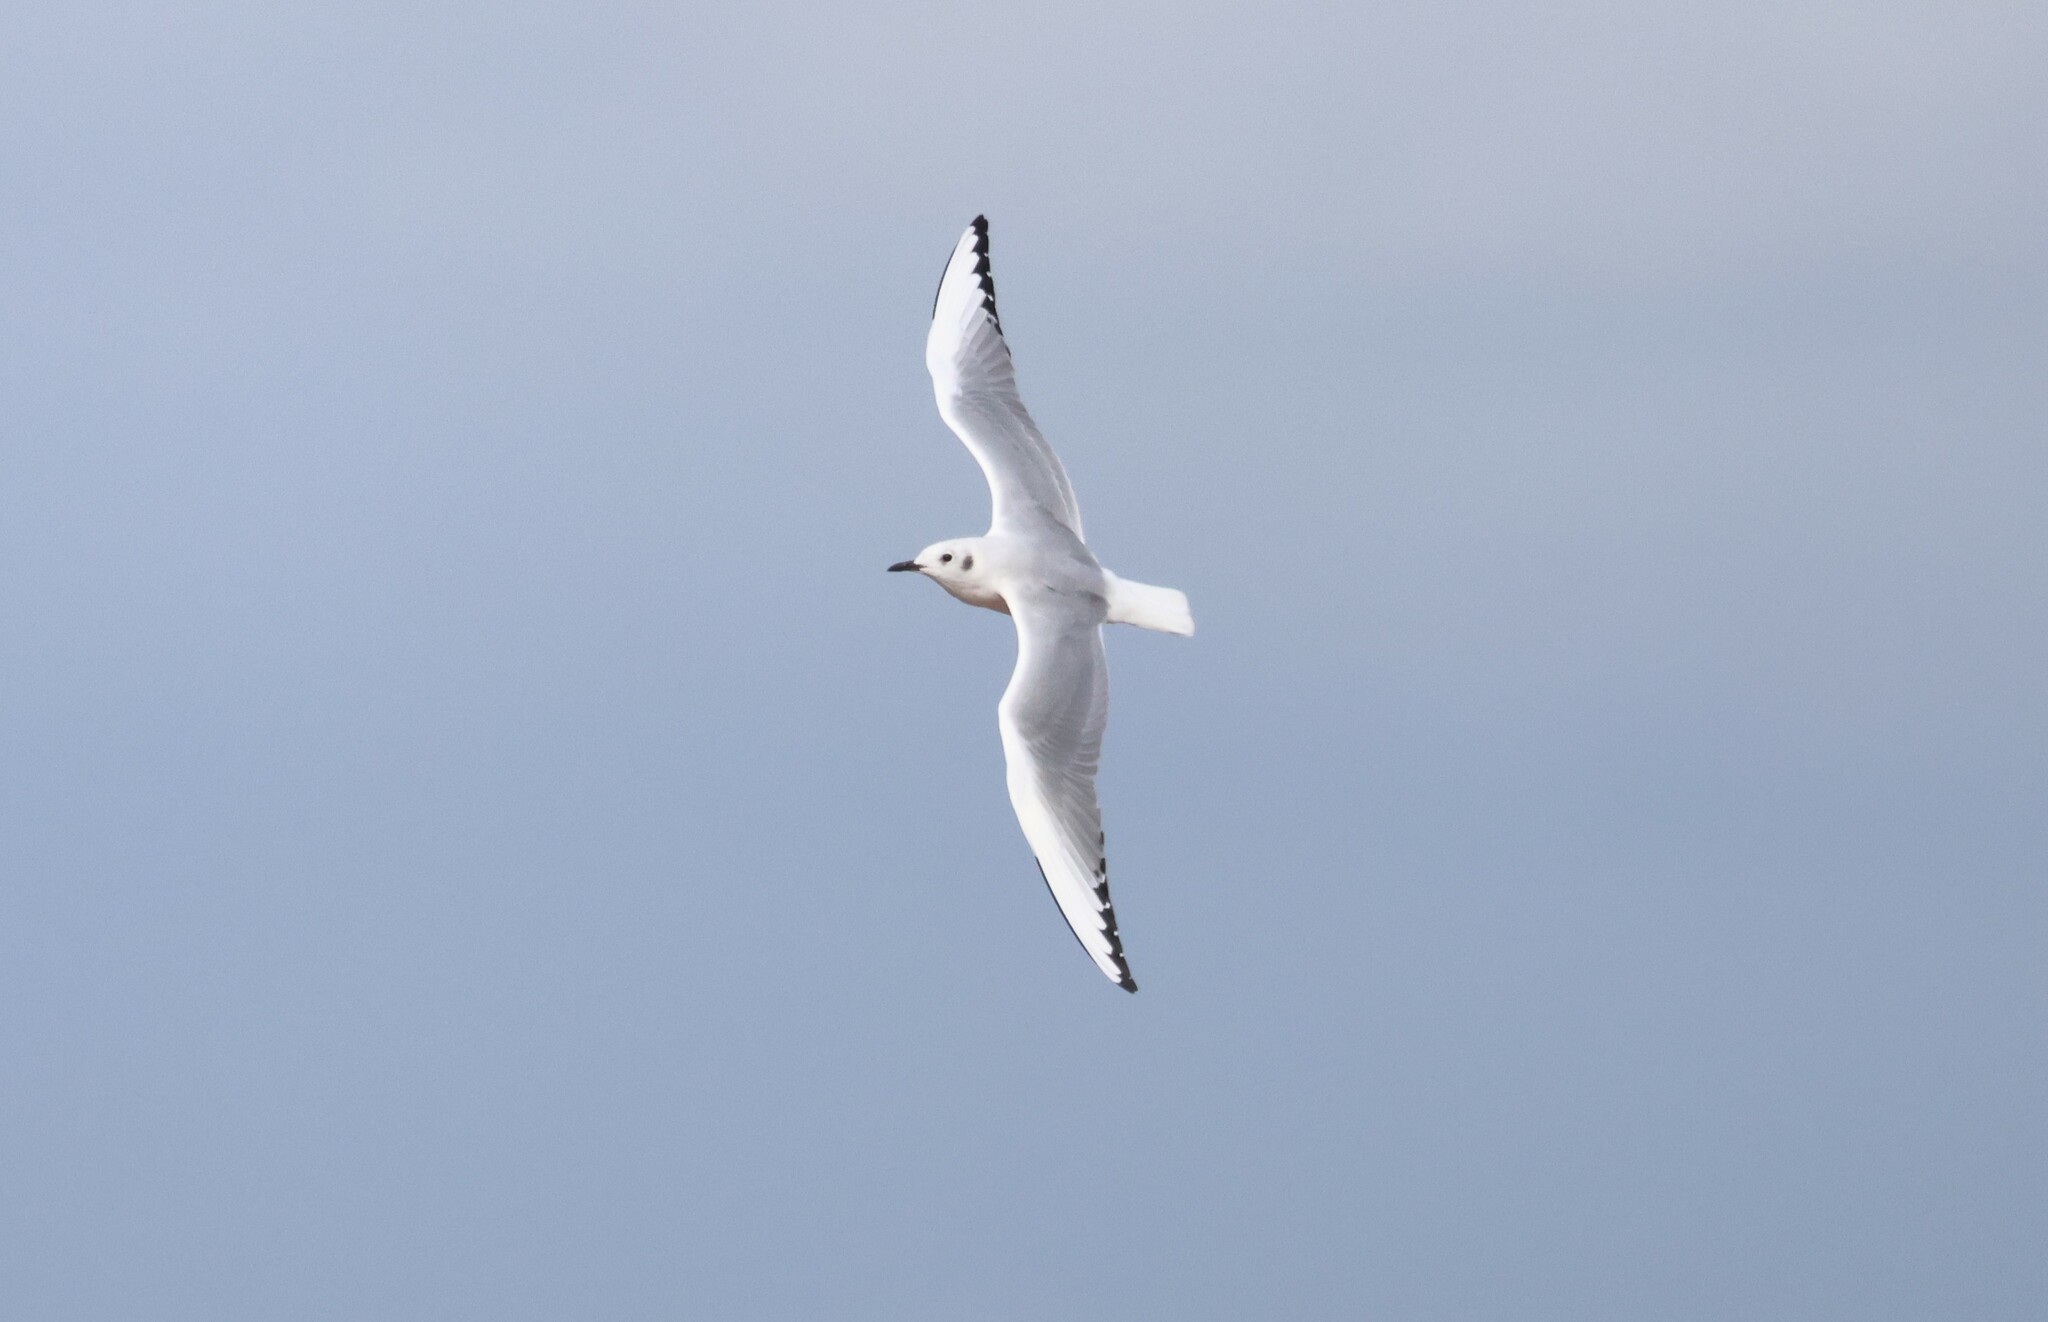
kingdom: Animalia
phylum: Chordata
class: Aves
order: Charadriiformes
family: Laridae
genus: Chroicocephalus
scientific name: Chroicocephalus philadelphia
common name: Bonaparte's gull
